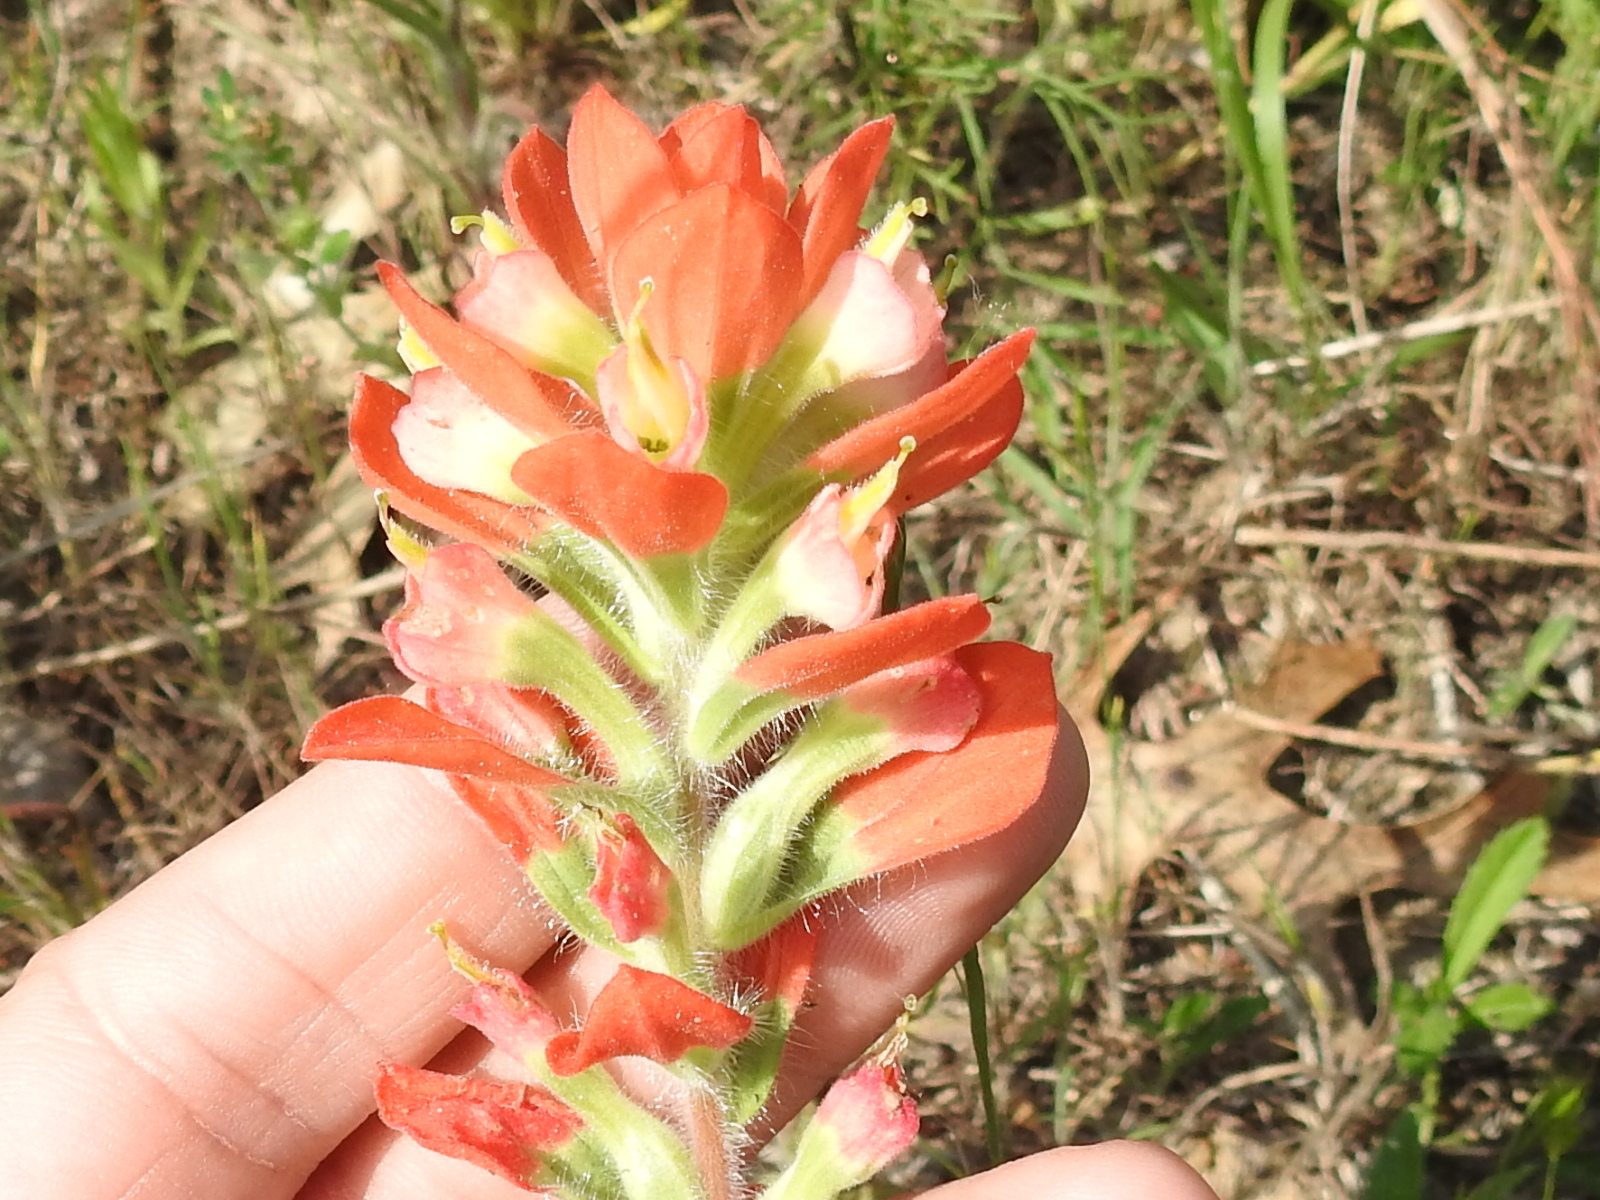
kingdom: Plantae
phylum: Tracheophyta
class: Magnoliopsida
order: Lamiales
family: Orobanchaceae
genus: Castilleja
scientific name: Castilleja indivisa
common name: Texas paintbrush
